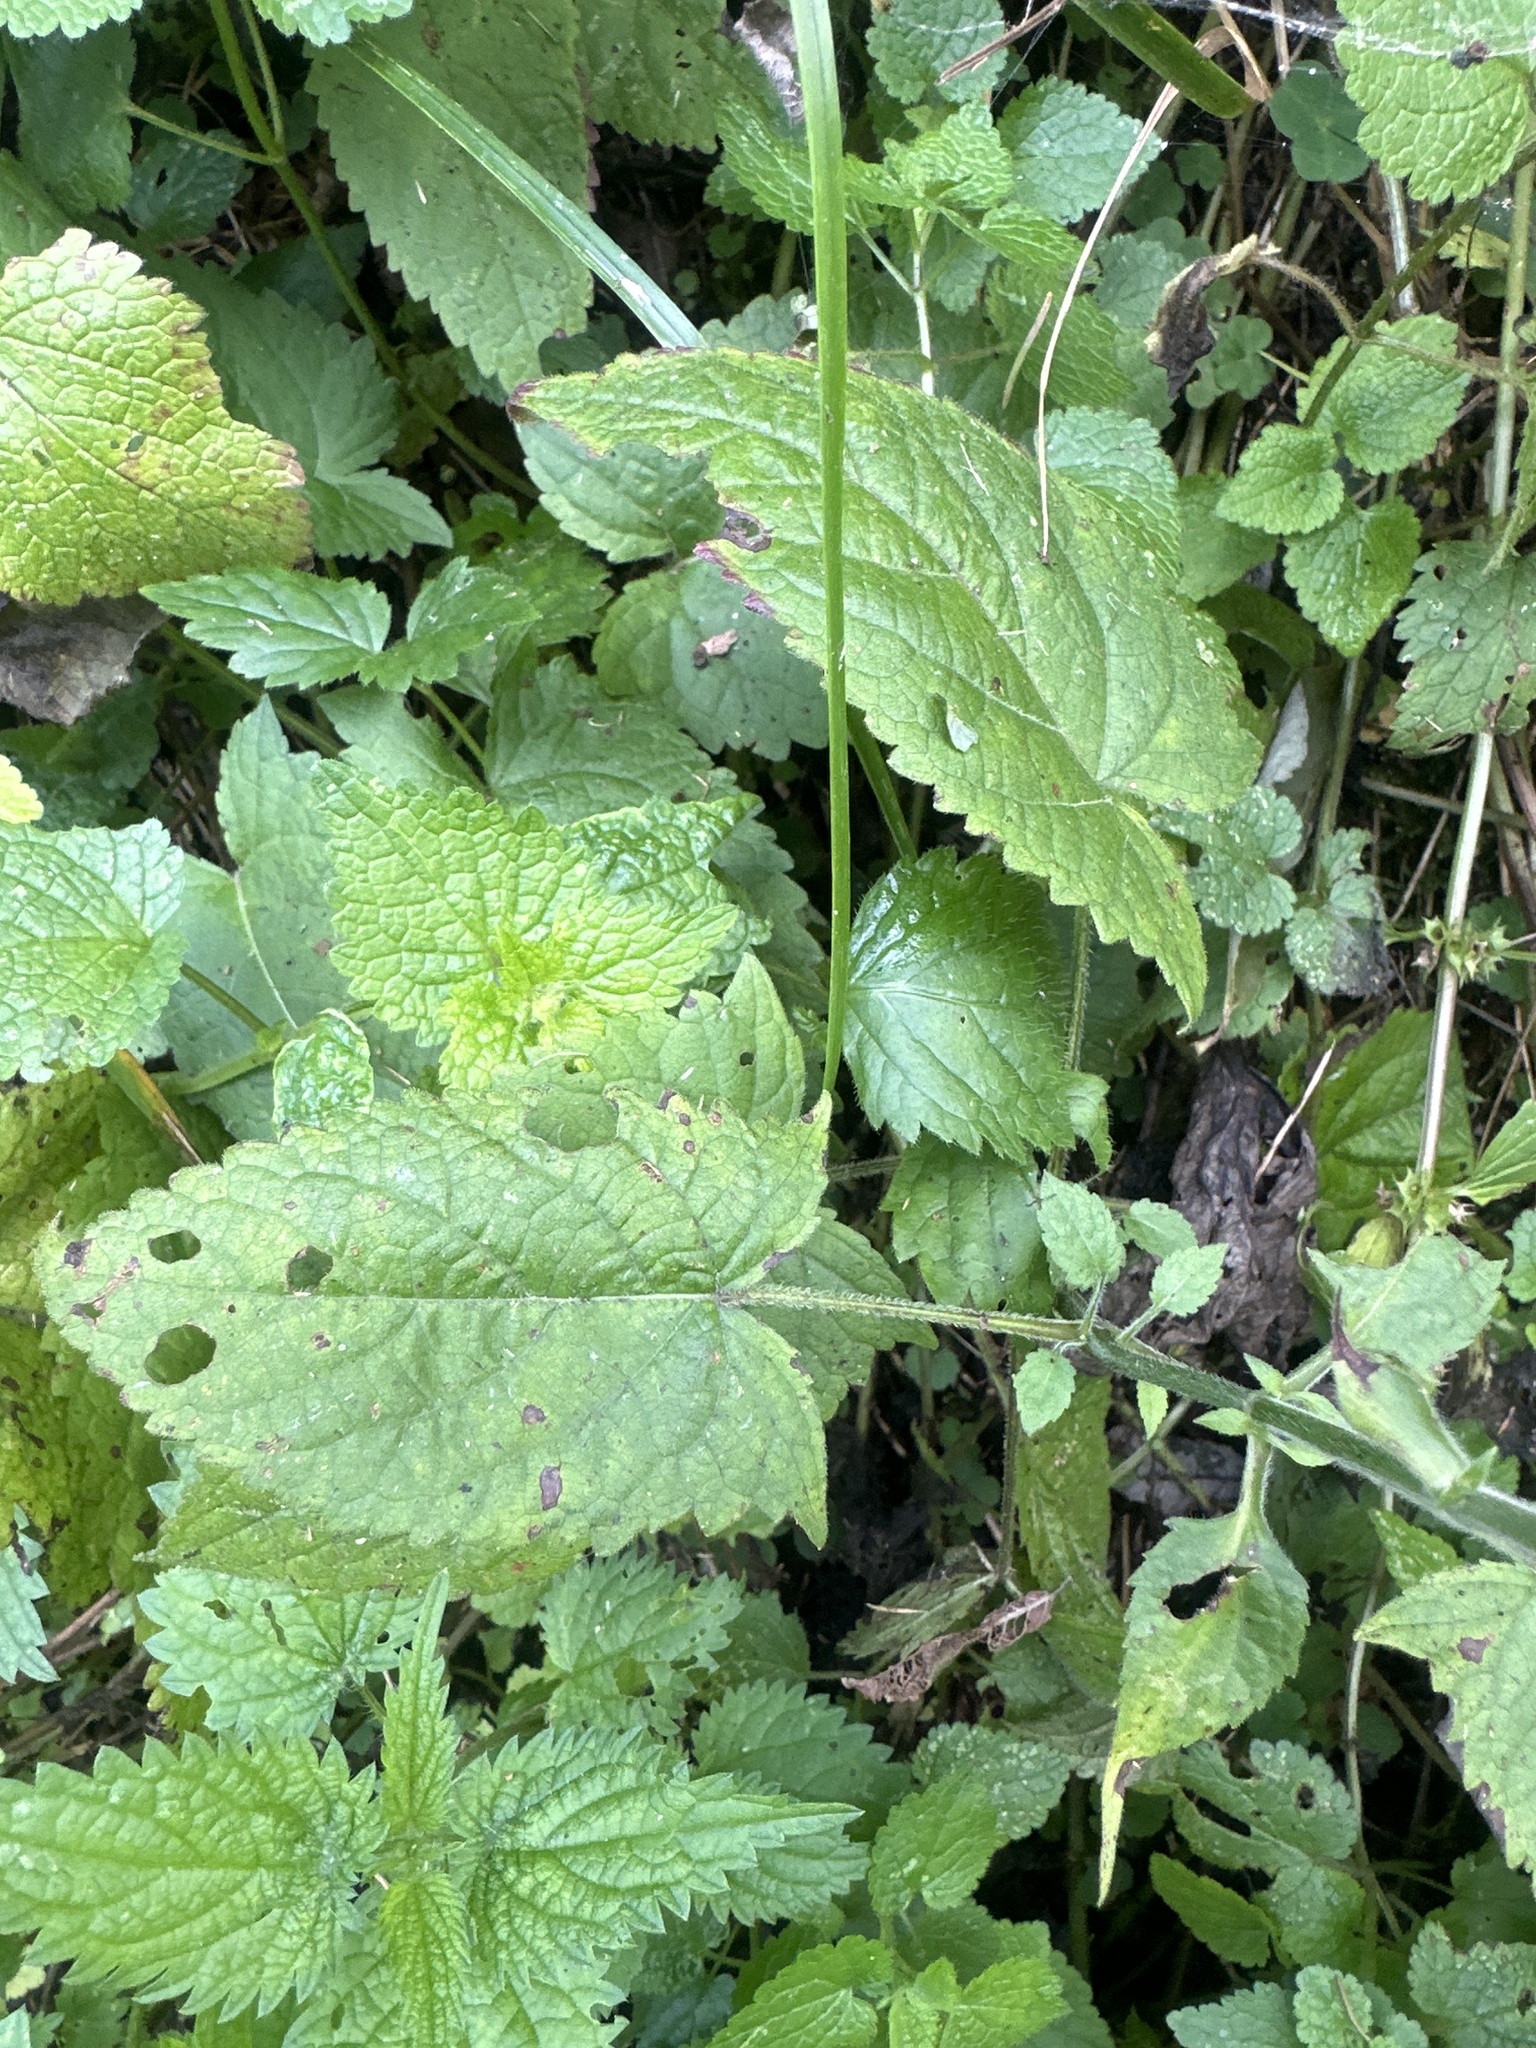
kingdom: Plantae
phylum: Tracheophyta
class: Magnoliopsida
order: Lamiales
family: Lamiaceae
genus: Salvia
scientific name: Salvia glutinosa
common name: Sticky clary
